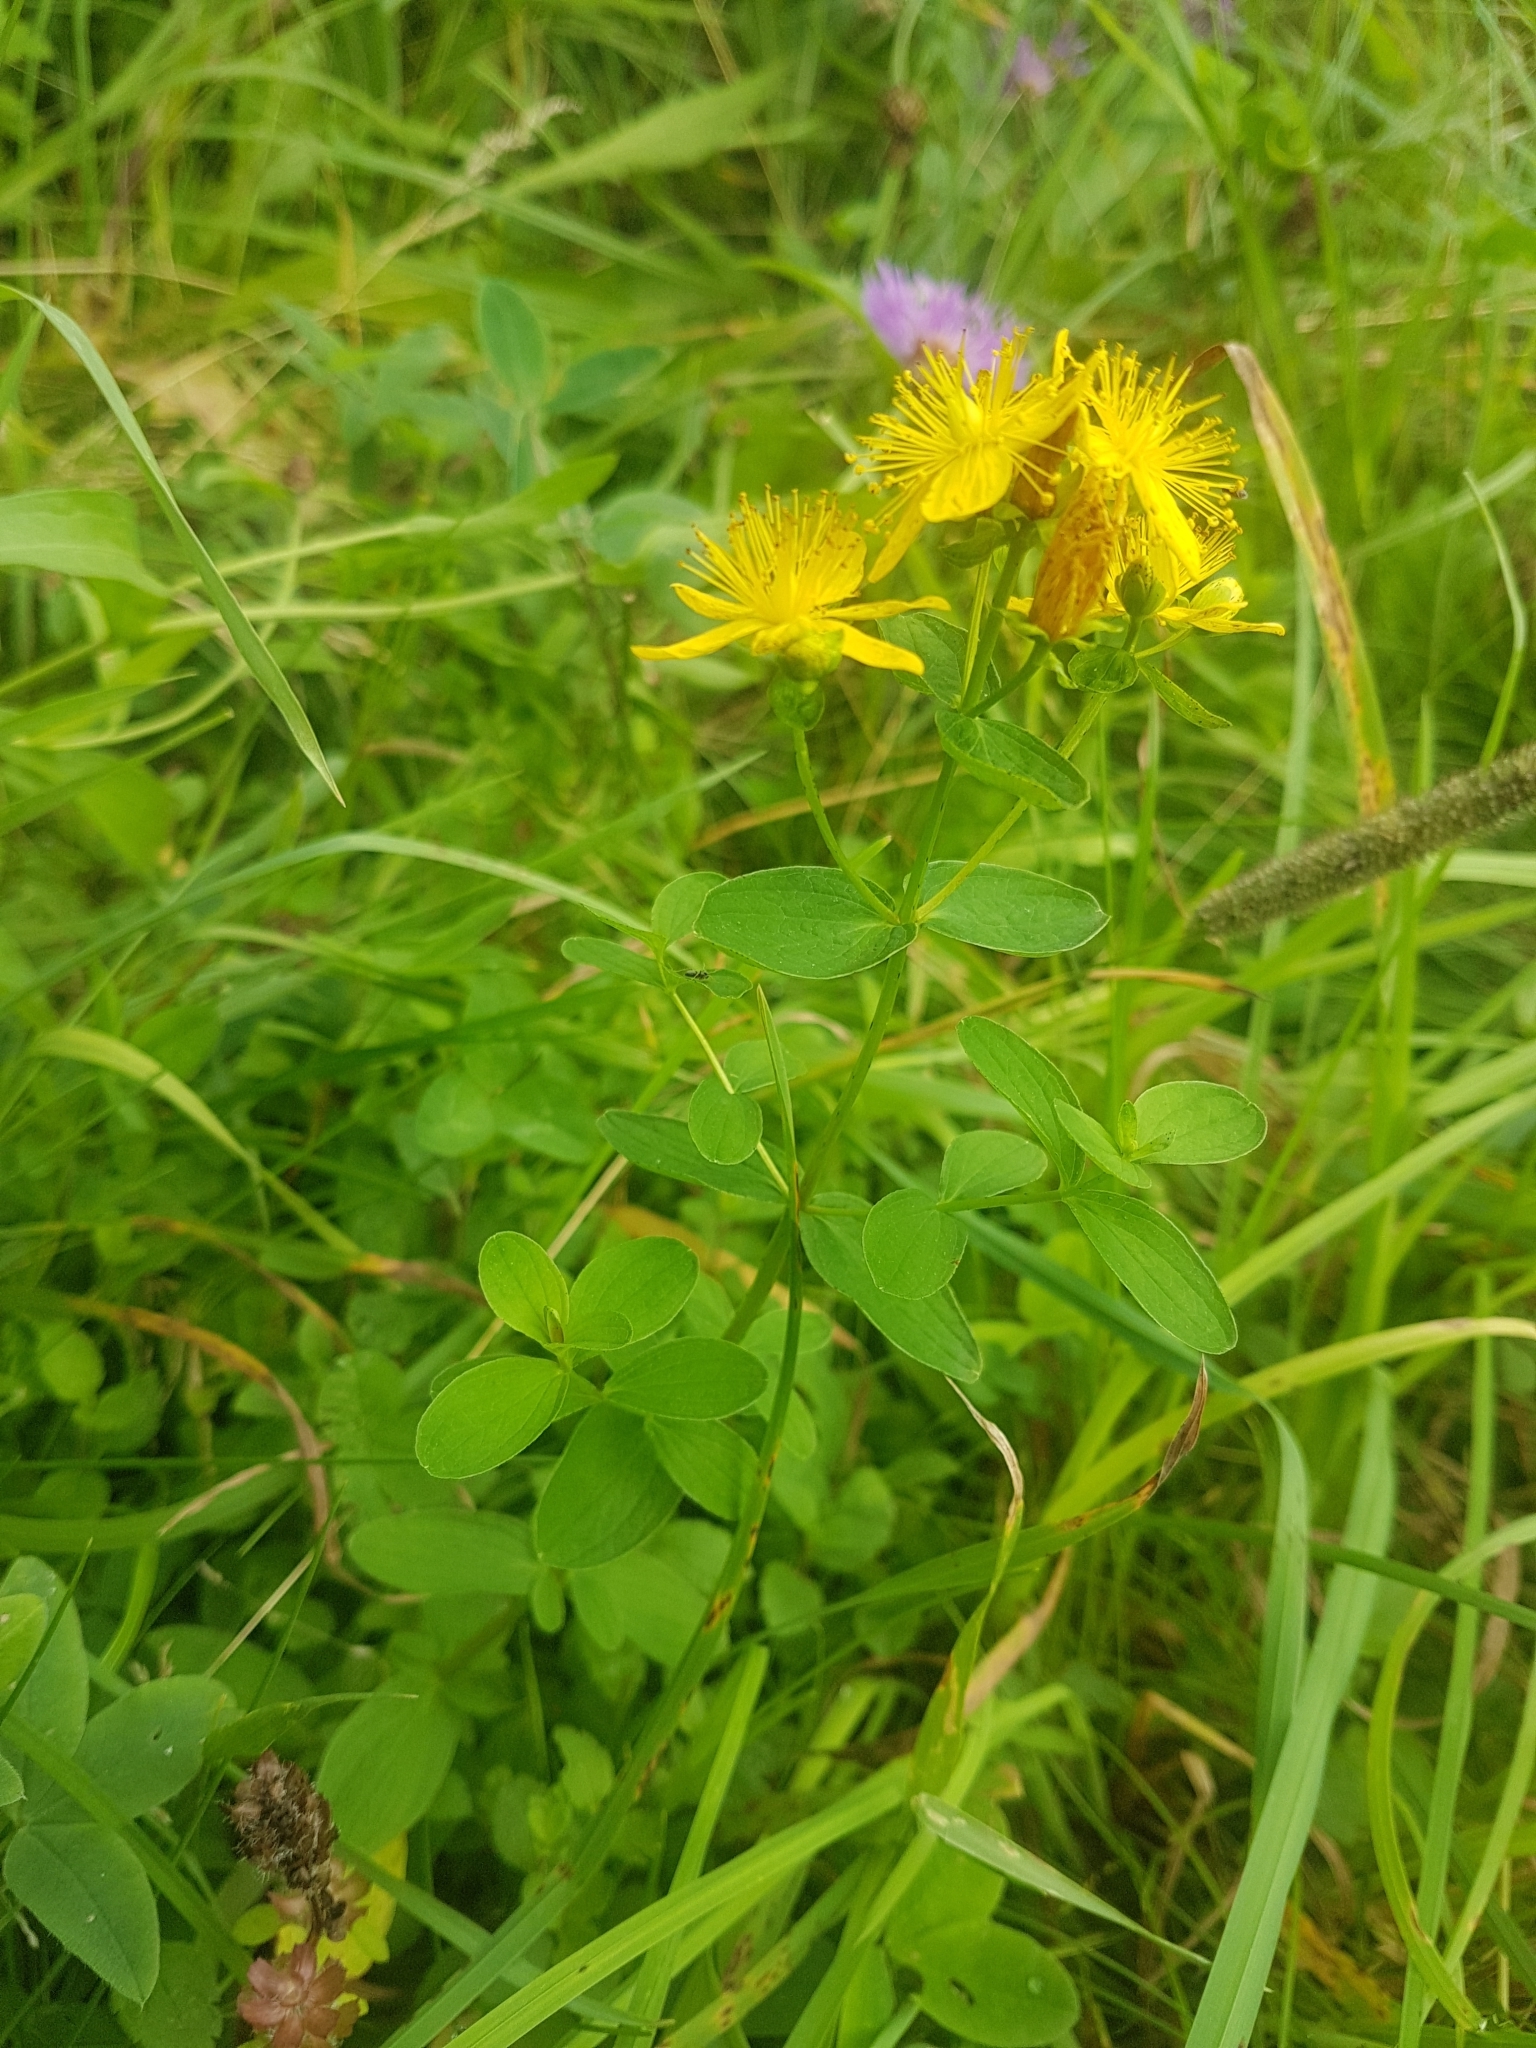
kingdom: Plantae
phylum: Tracheophyta
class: Magnoliopsida
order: Malpighiales
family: Hypericaceae
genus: Hypericum
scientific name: Hypericum maculatum
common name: Imperforate st. john's-wort
